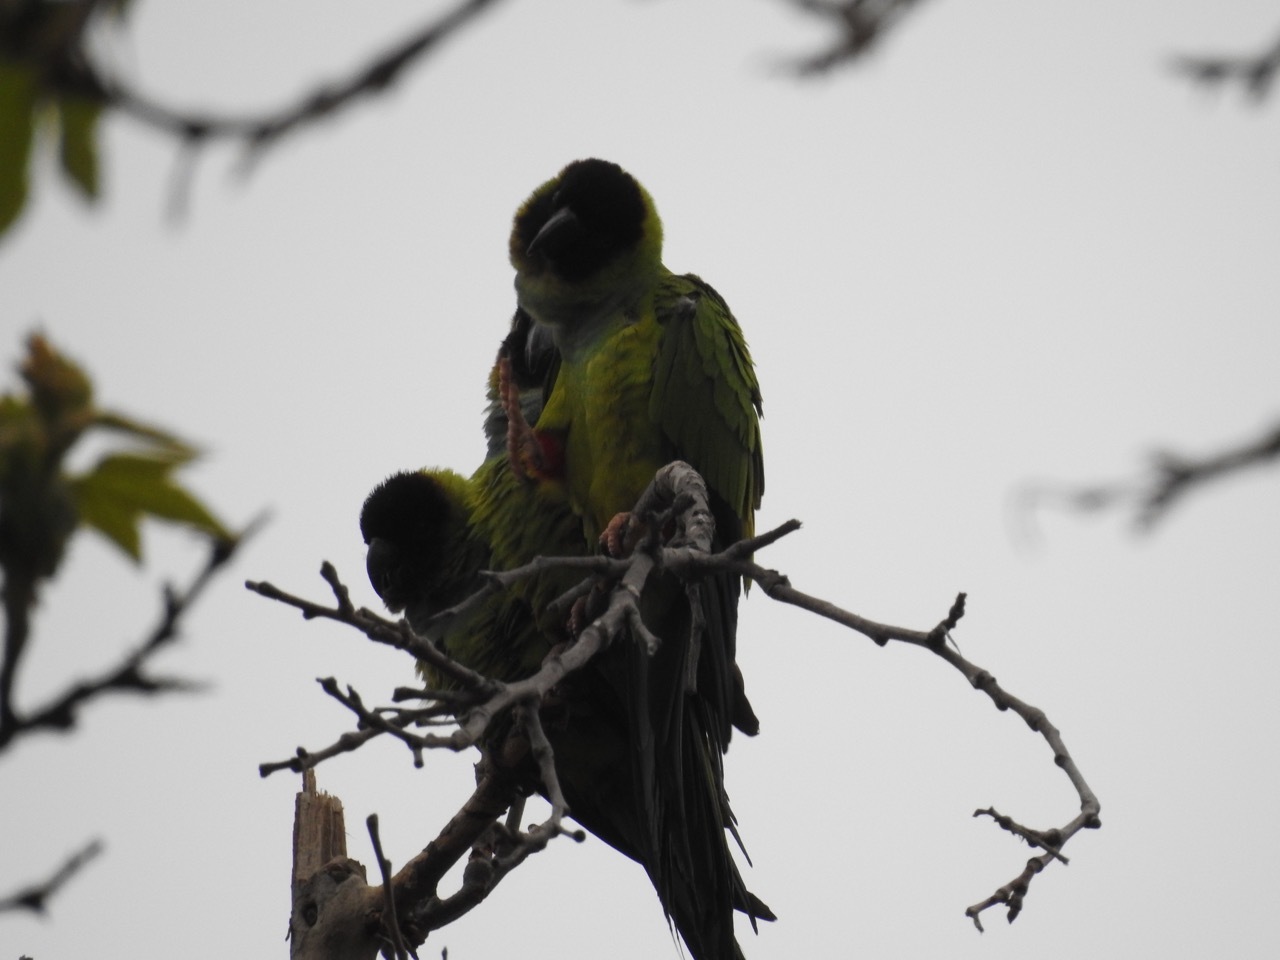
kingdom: Animalia
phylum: Chordata
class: Aves
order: Psittaciformes
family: Psittacidae
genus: Nandayus
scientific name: Nandayus nenday
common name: Nanday parakeet
